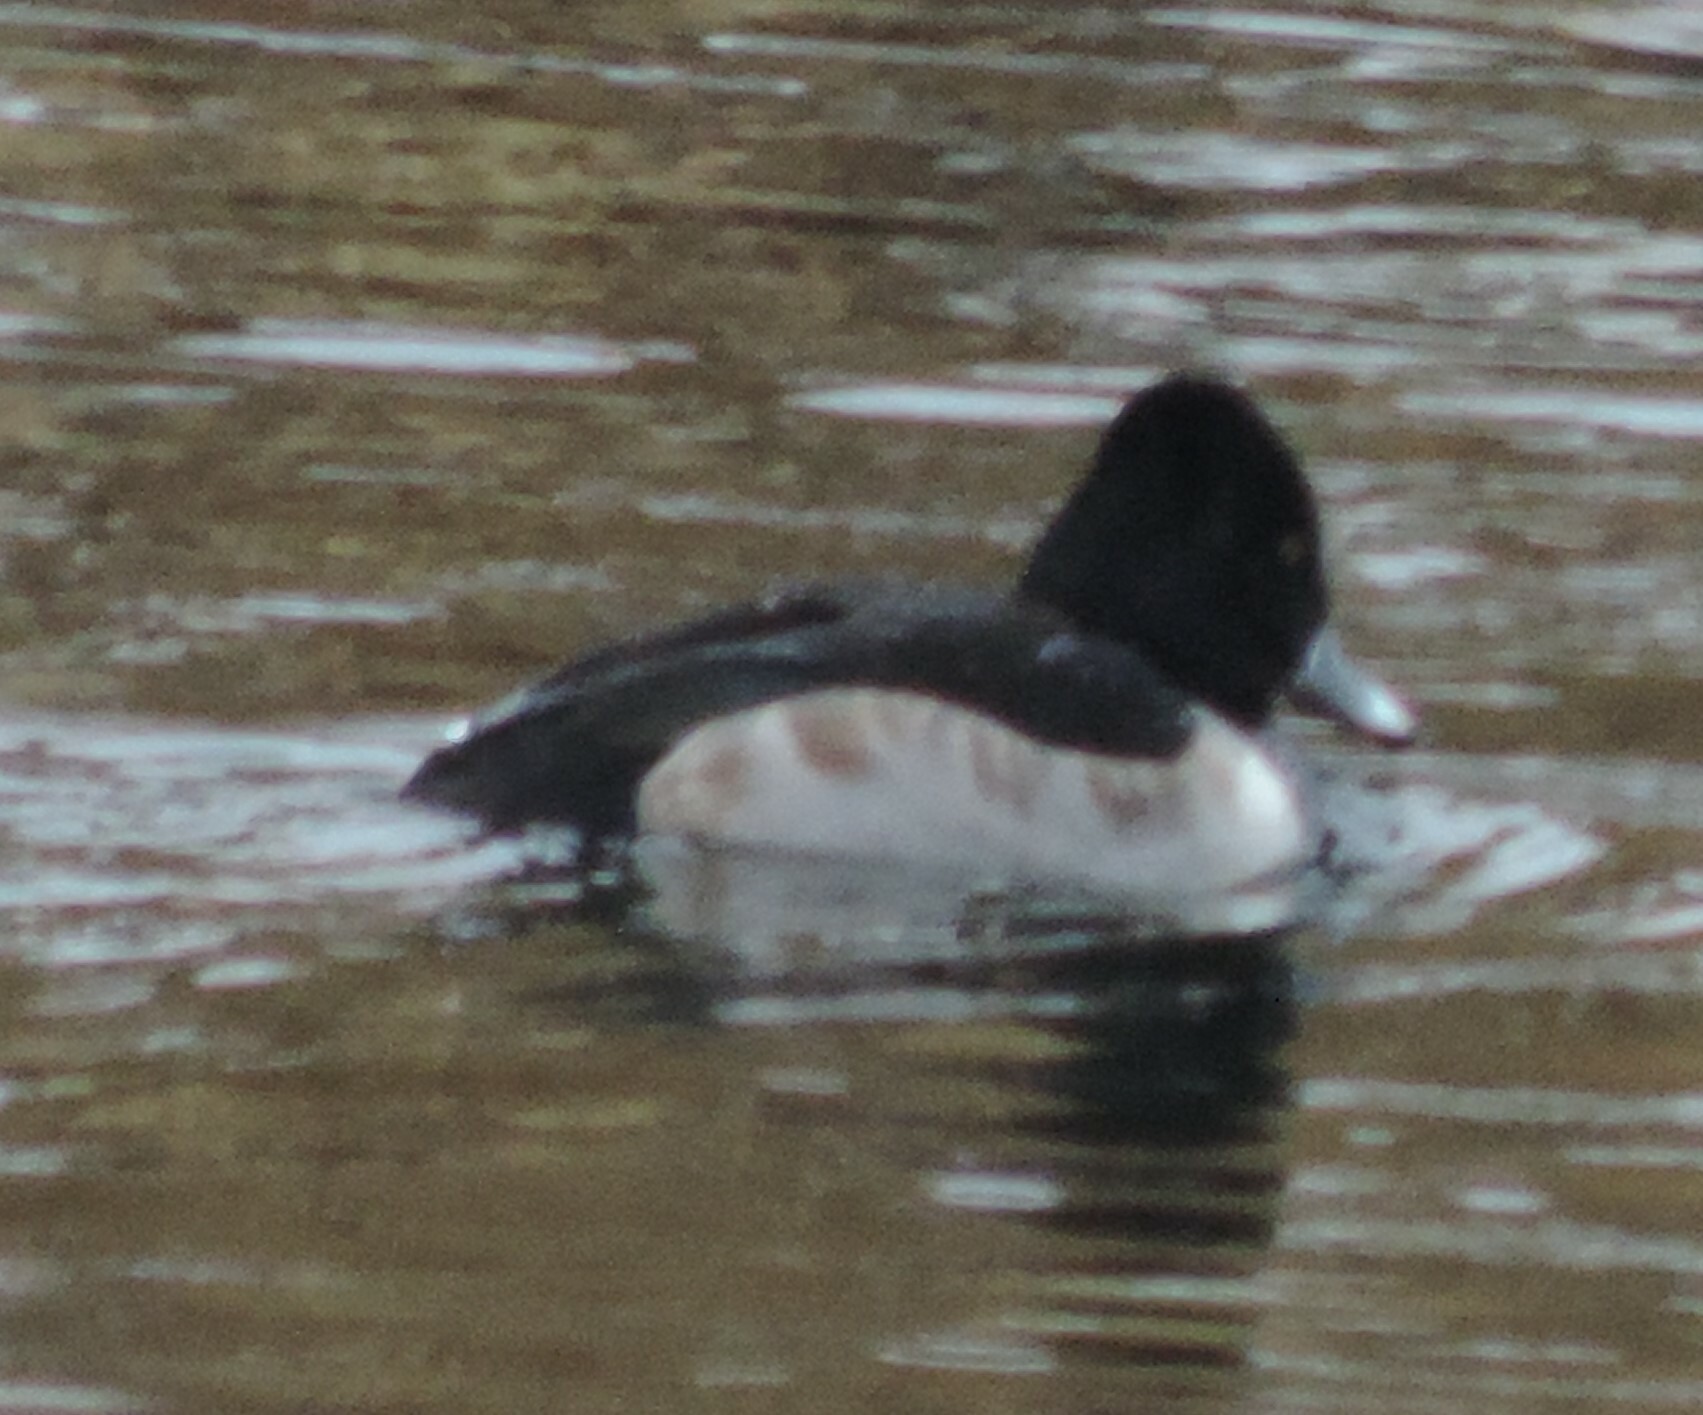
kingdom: Animalia
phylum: Chordata
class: Aves
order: Anseriformes
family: Anatidae
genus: Aythya
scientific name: Aythya collaris
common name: Ring-necked duck
